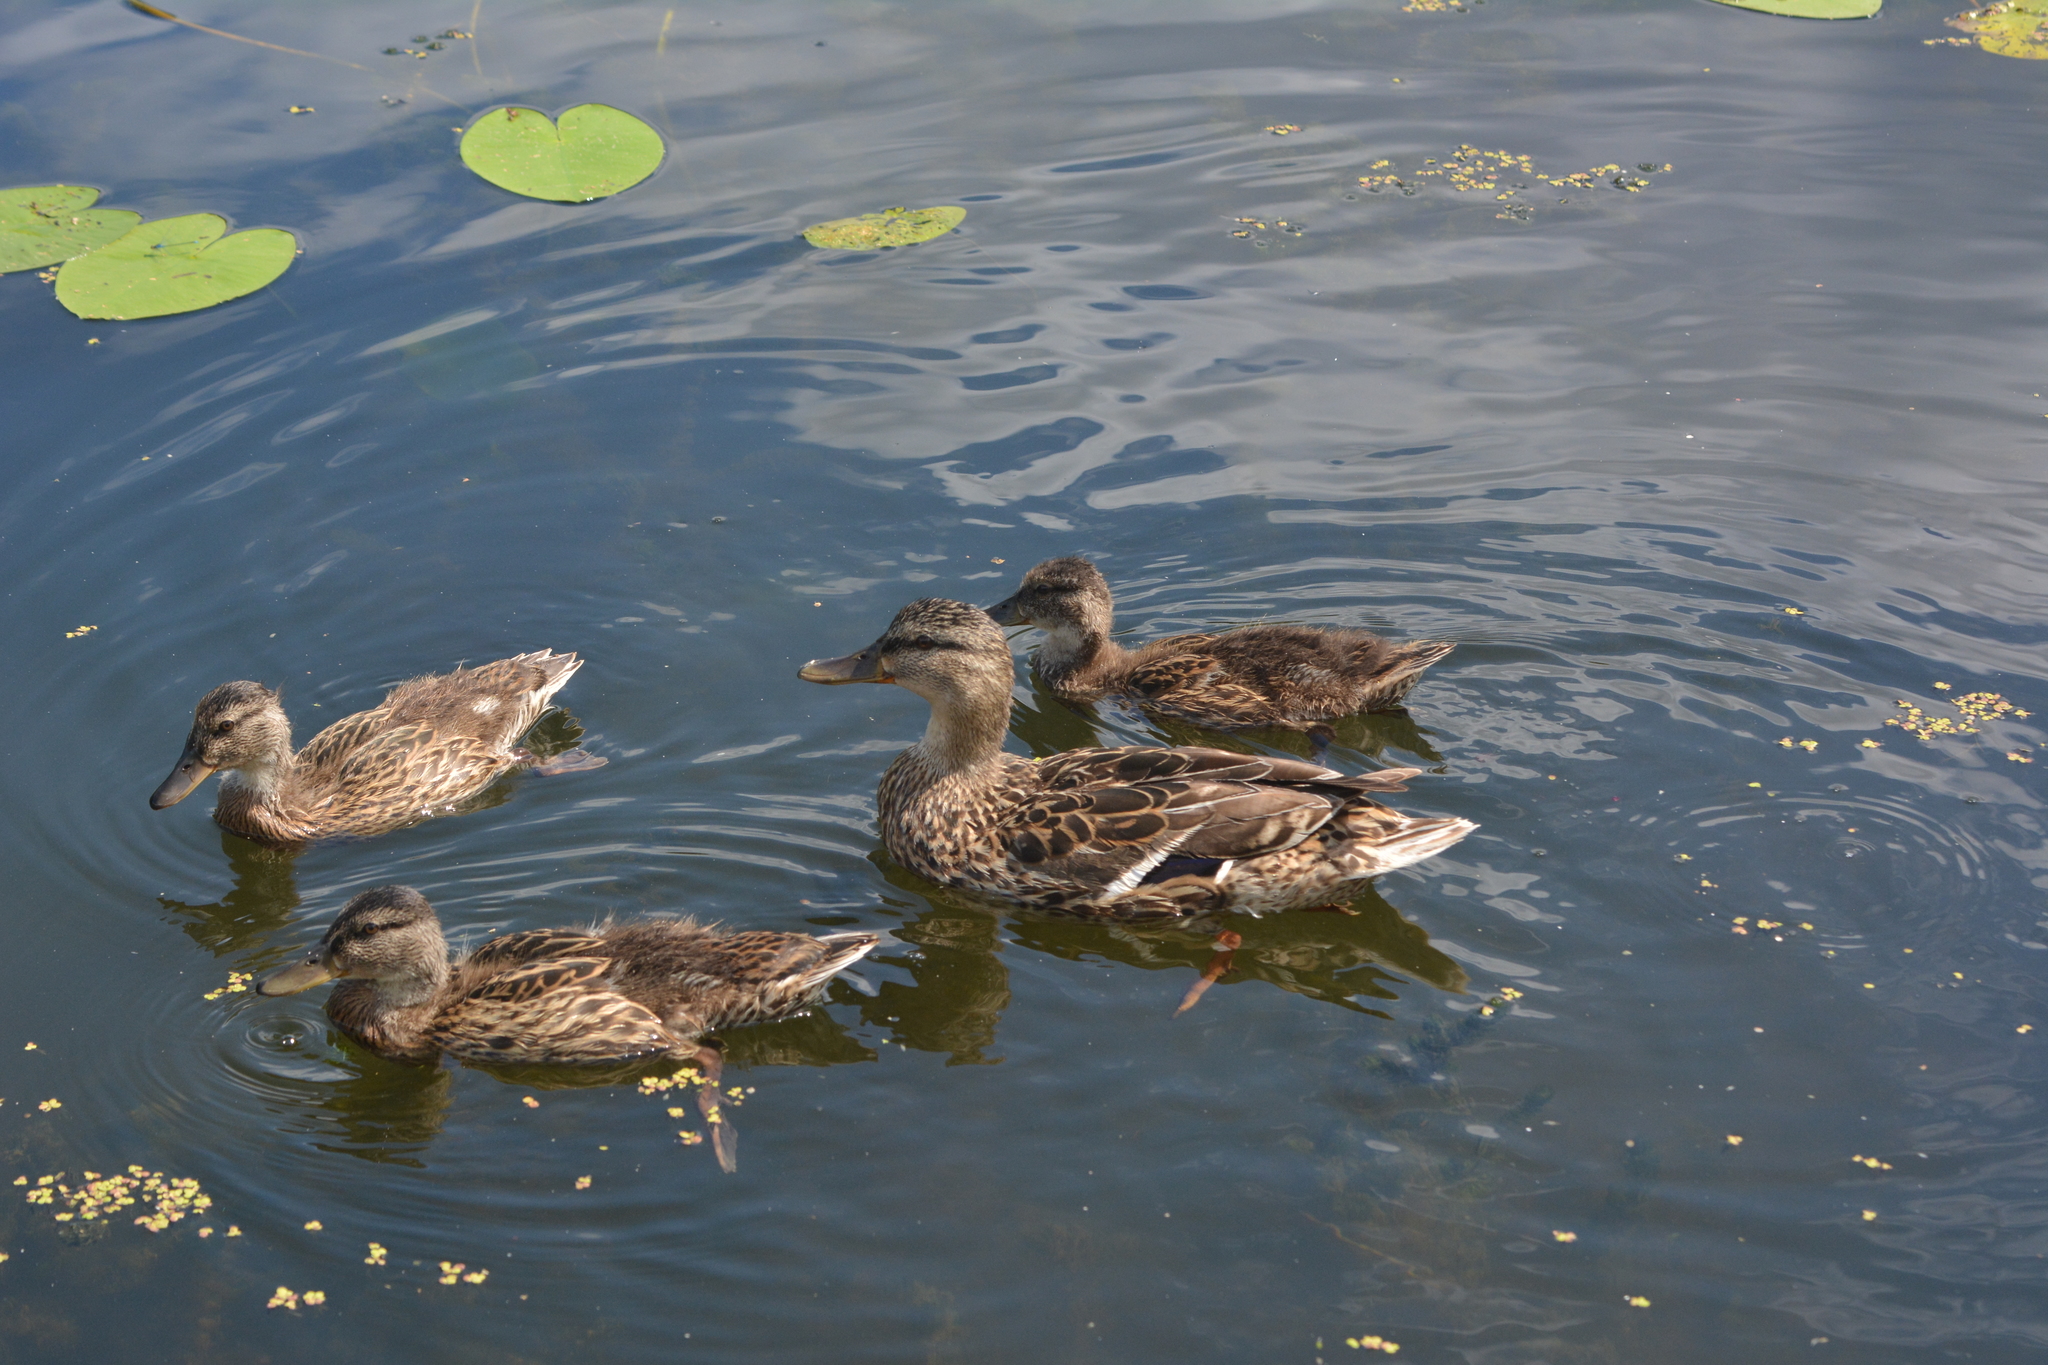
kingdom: Animalia
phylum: Chordata
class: Aves
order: Anseriformes
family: Anatidae
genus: Anas
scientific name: Anas platyrhynchos
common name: Mallard
